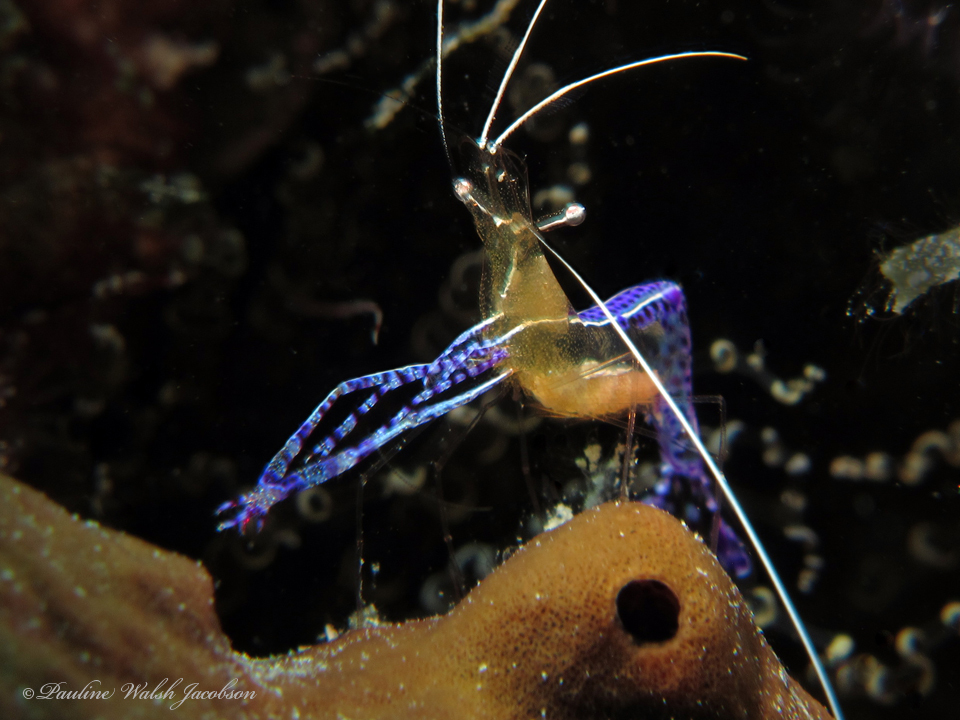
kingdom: Animalia
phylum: Arthropoda
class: Malacostraca
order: Decapoda
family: Palaemonidae
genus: Ancylomenes
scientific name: Ancylomenes pedersoni
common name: Pederson's cleaning shrimp
